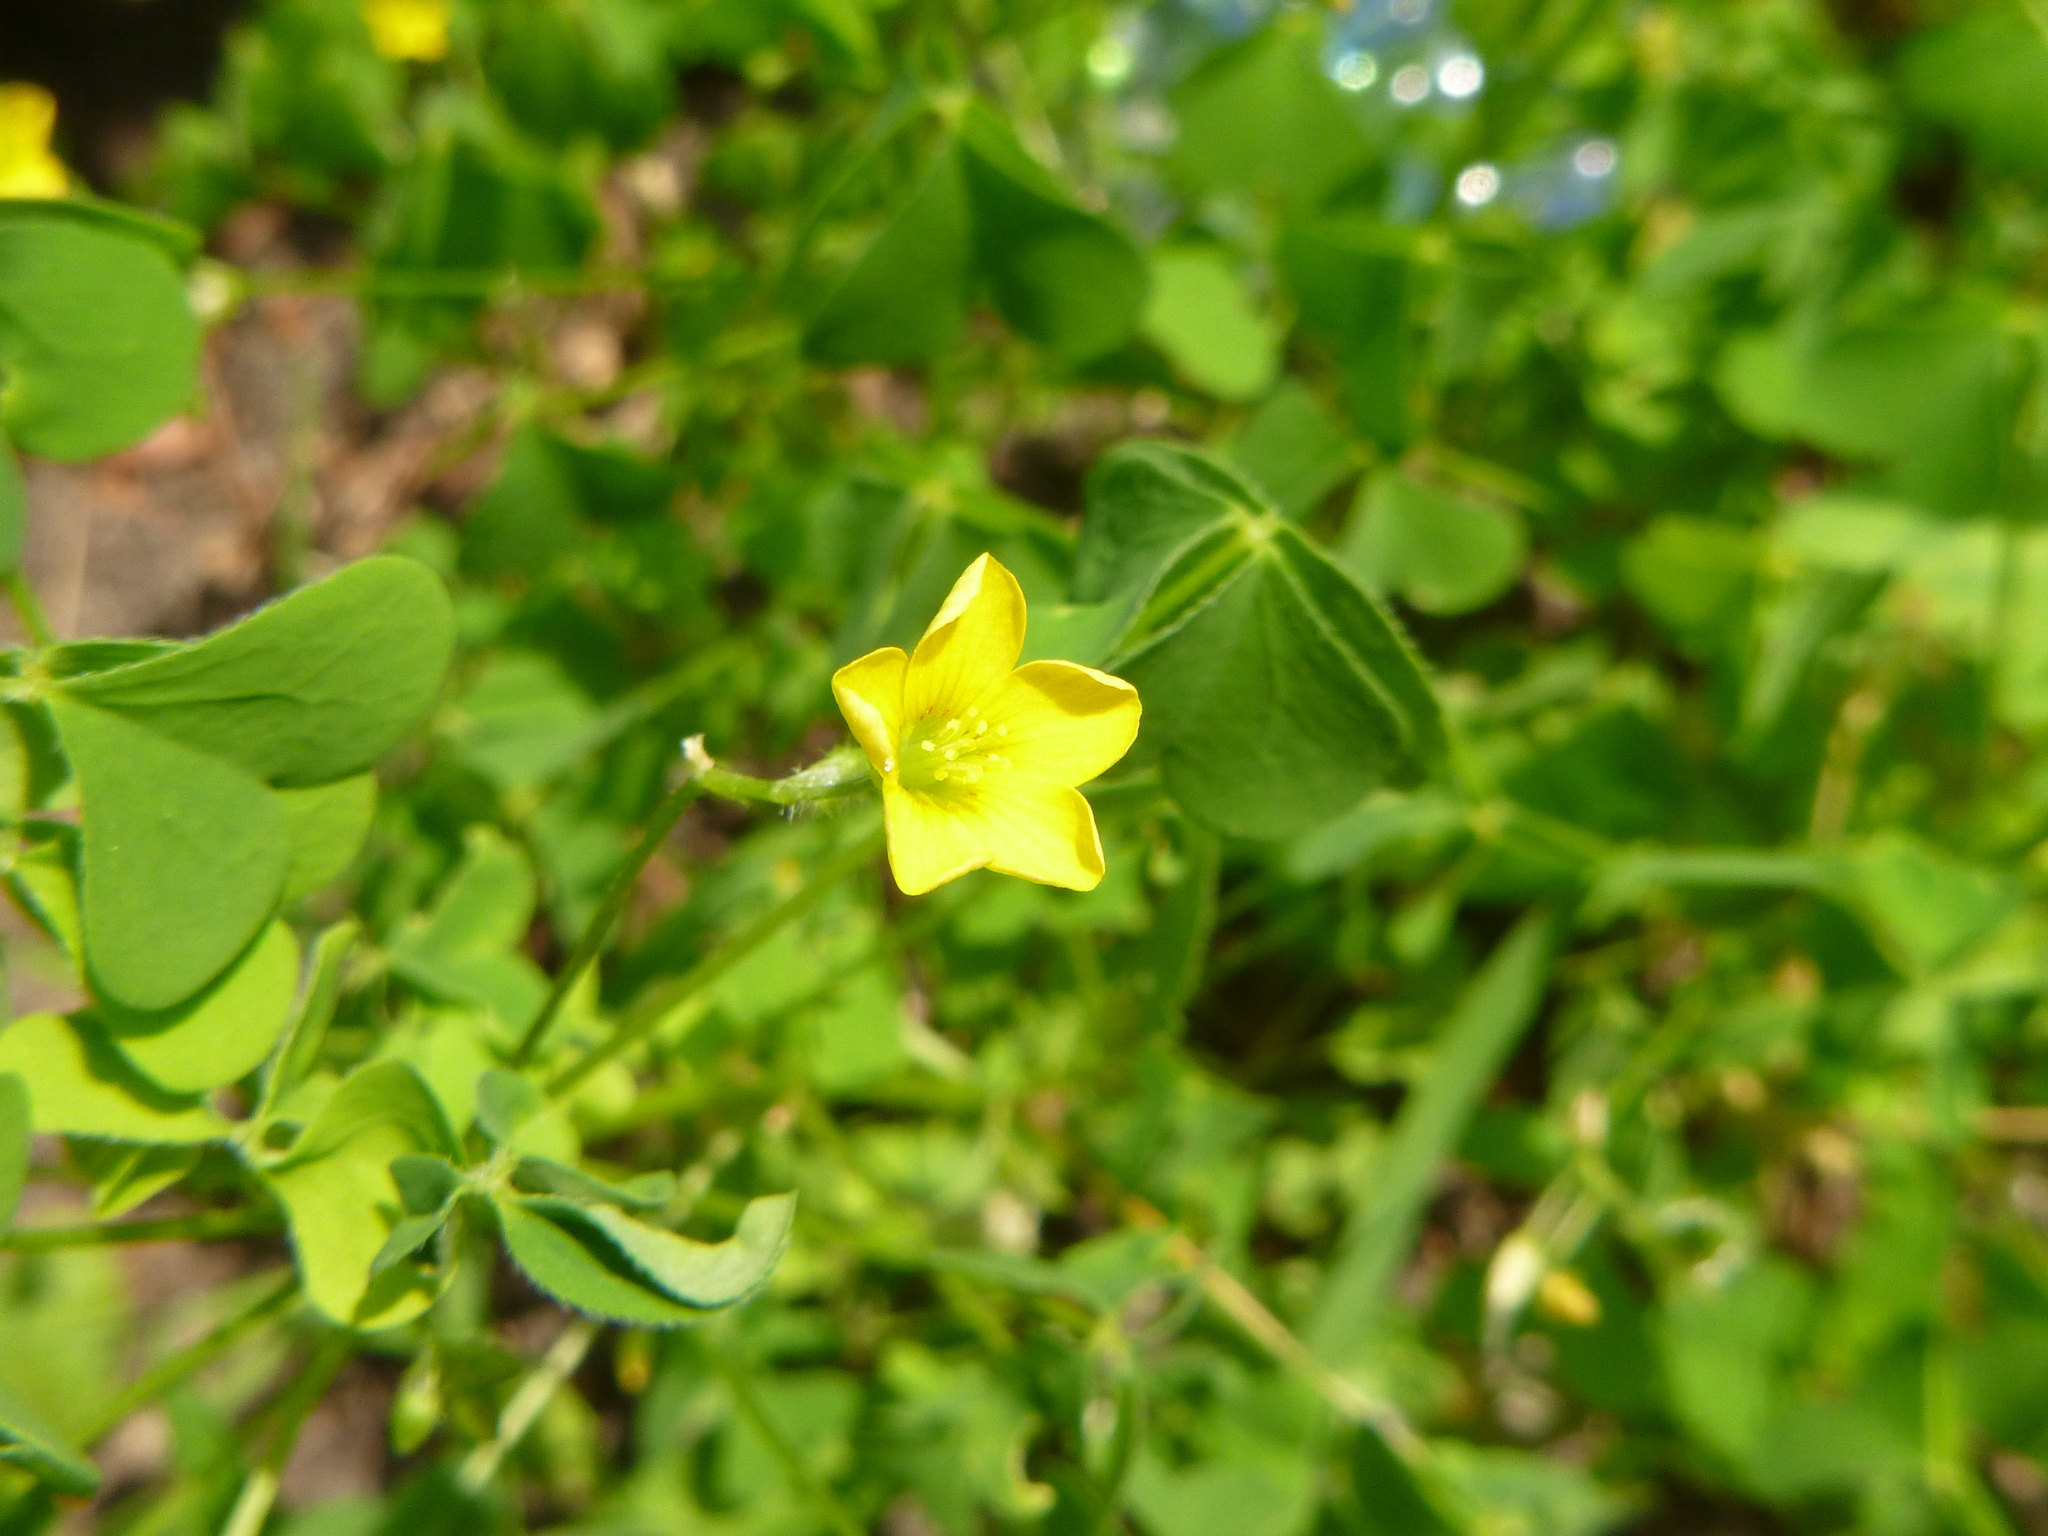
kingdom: Plantae
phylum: Tracheophyta
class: Magnoliopsida
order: Oxalidales
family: Oxalidaceae
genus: Oxalis
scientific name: Oxalis stricta
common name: Upright yellow-sorrel
